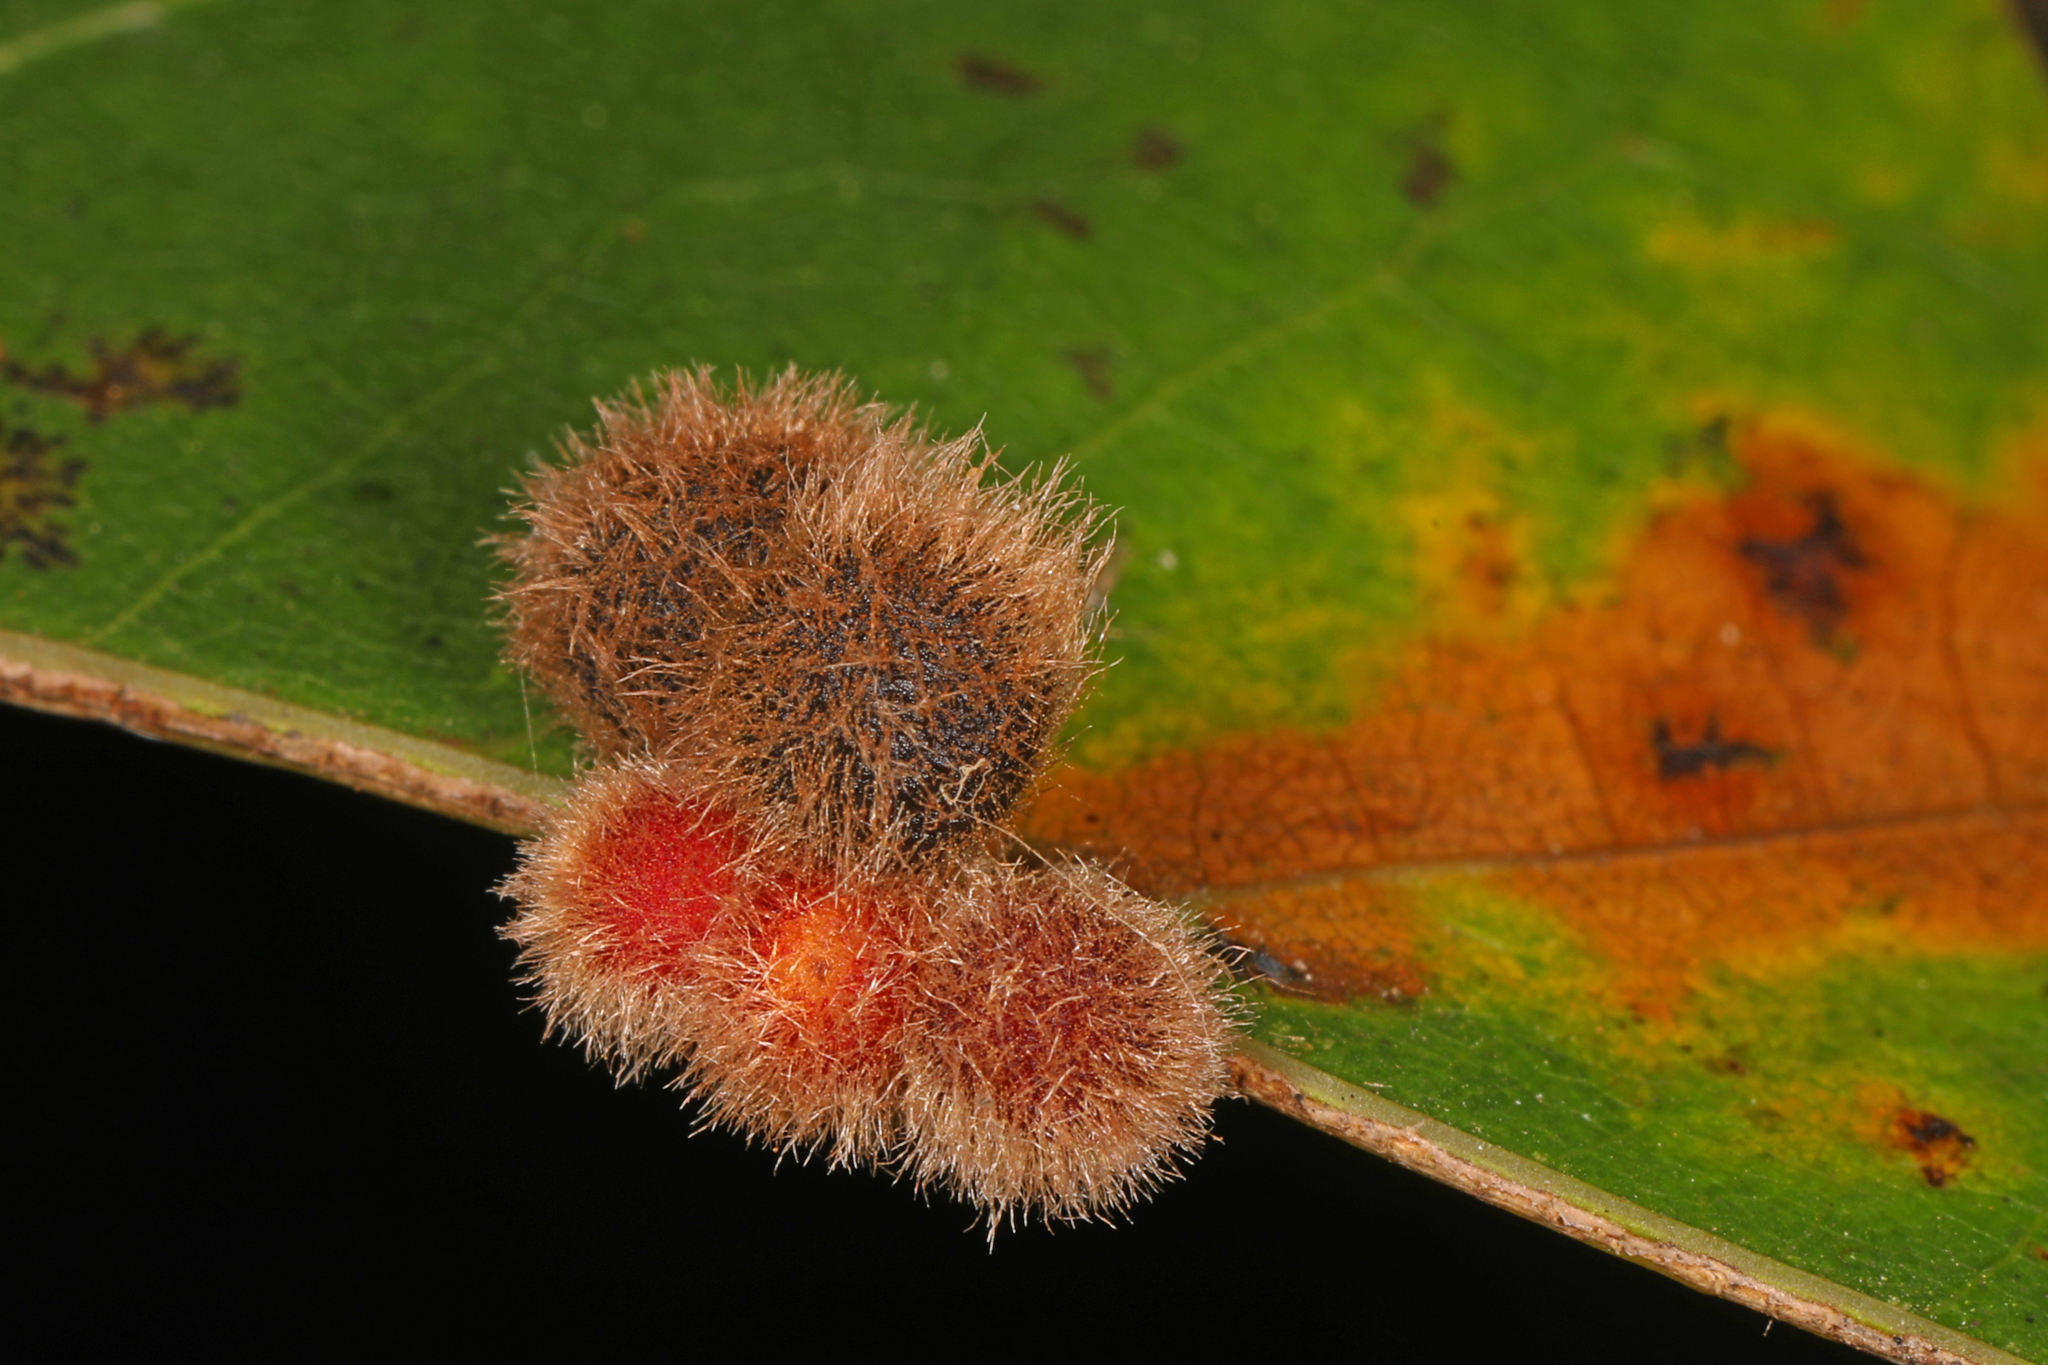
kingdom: Animalia
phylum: Arthropoda
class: Insecta
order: Hymenoptera
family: Cynipidae
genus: Callirhytis
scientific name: Callirhytis
